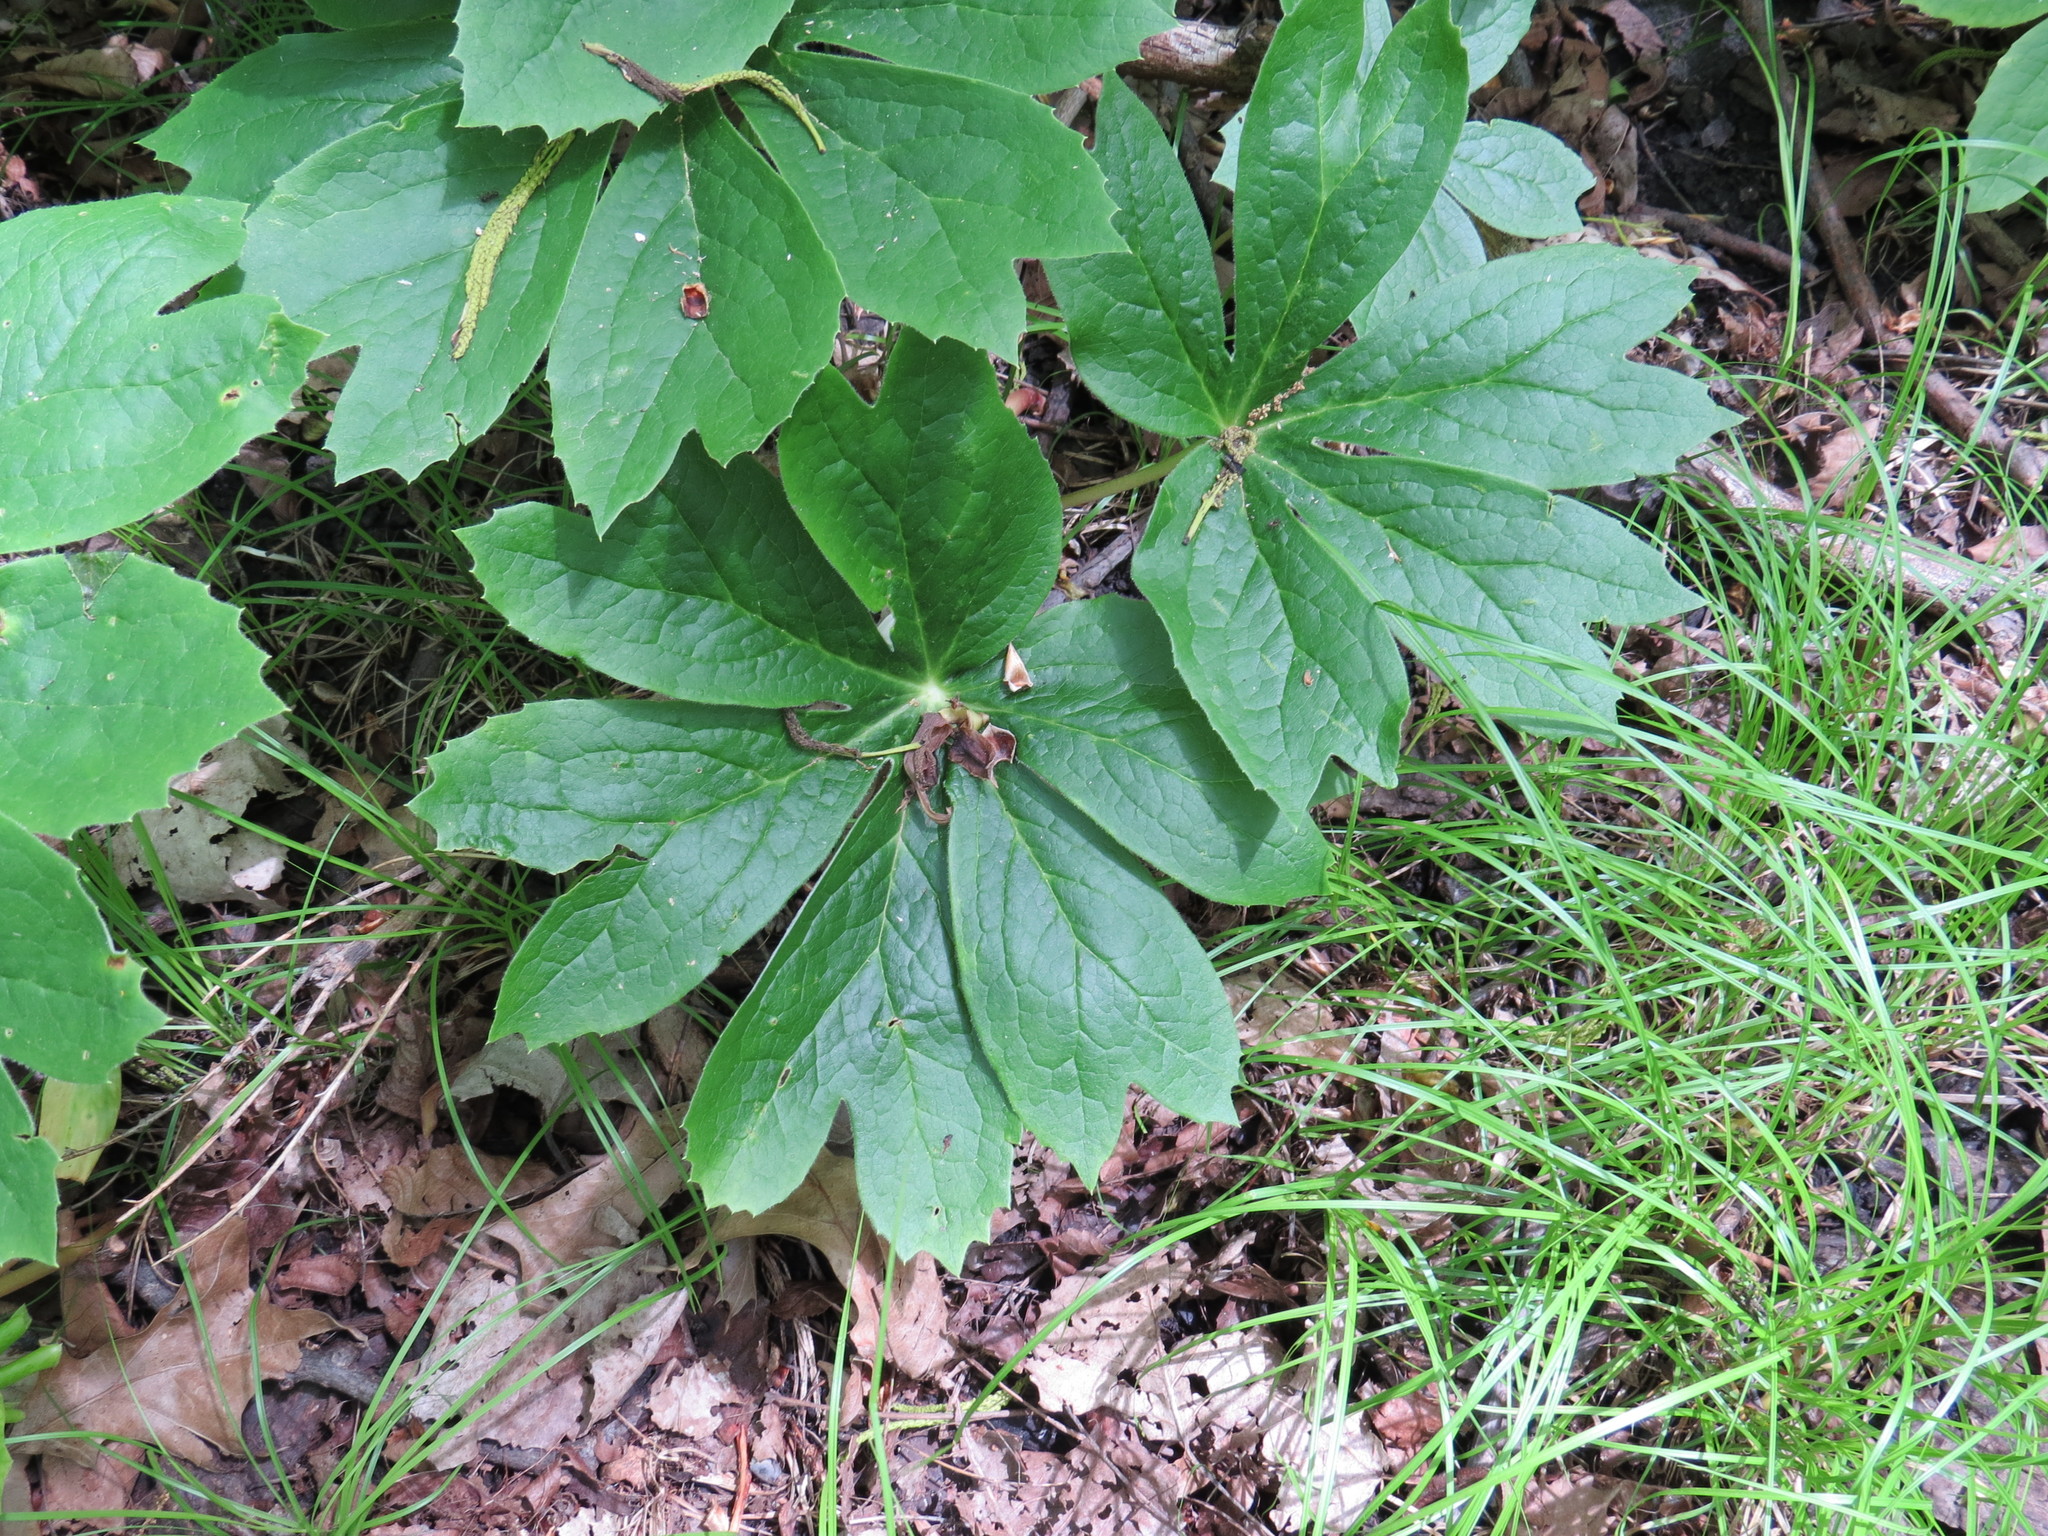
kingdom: Plantae
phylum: Tracheophyta
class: Magnoliopsida
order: Ranunculales
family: Berberidaceae
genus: Podophyllum
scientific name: Podophyllum peltatum
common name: Wild mandrake
